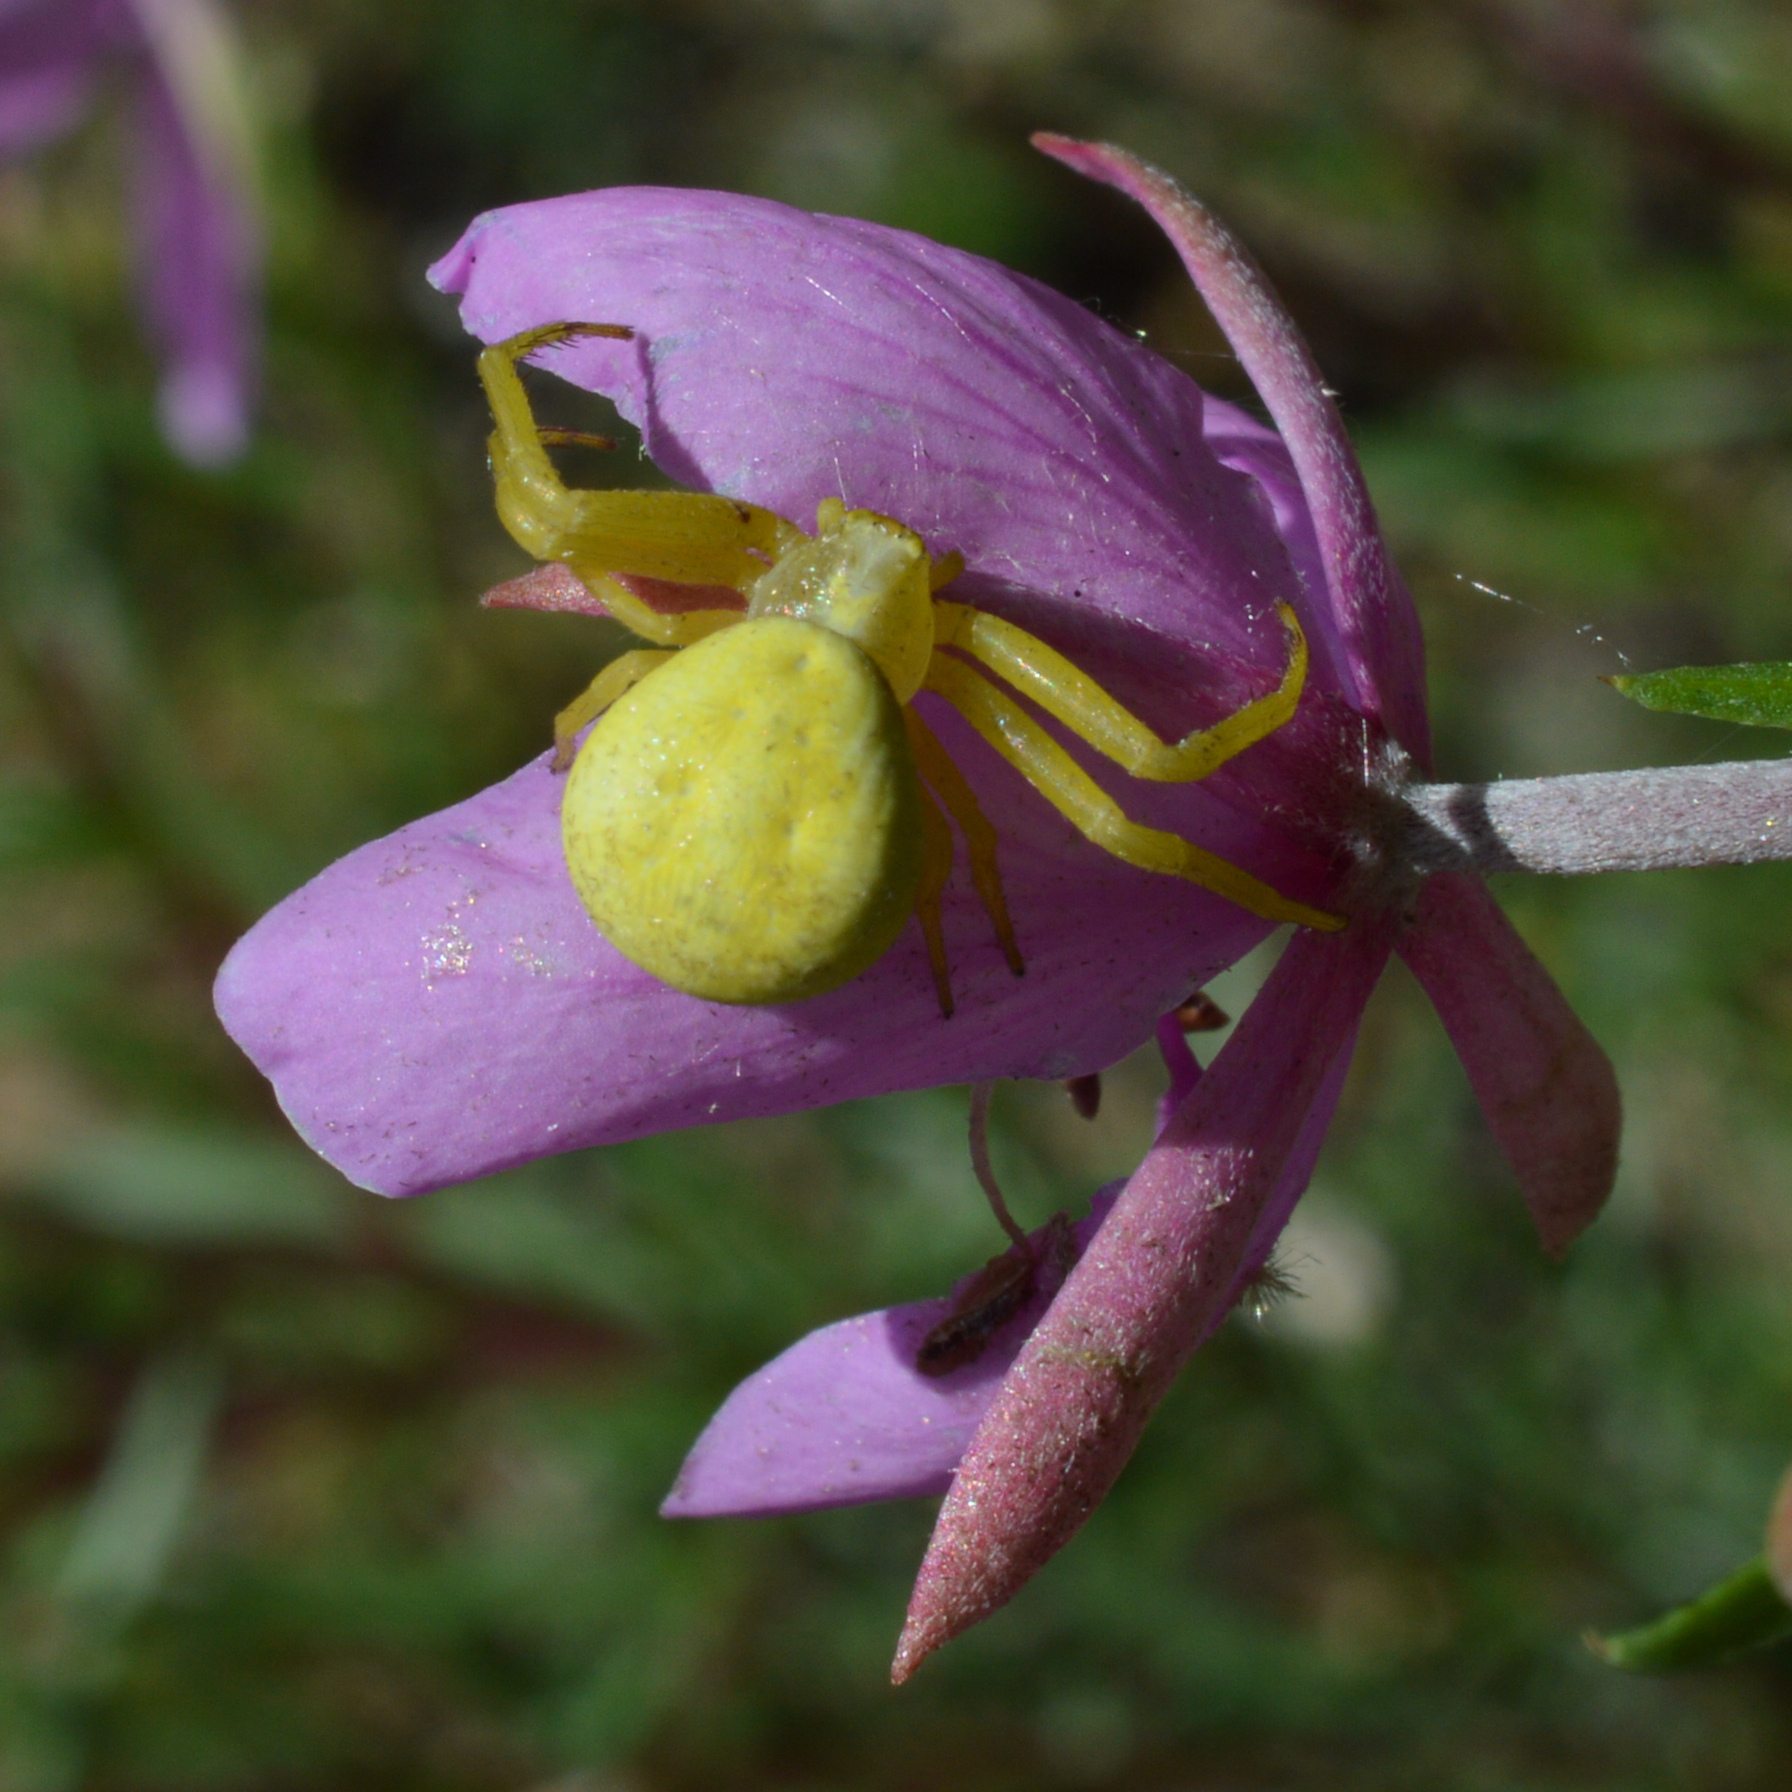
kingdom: Animalia
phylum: Arthropoda
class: Arachnida
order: Araneae
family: Thomisidae
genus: Misumena
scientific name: Misumena vatia
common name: Goldenrod crab spider
